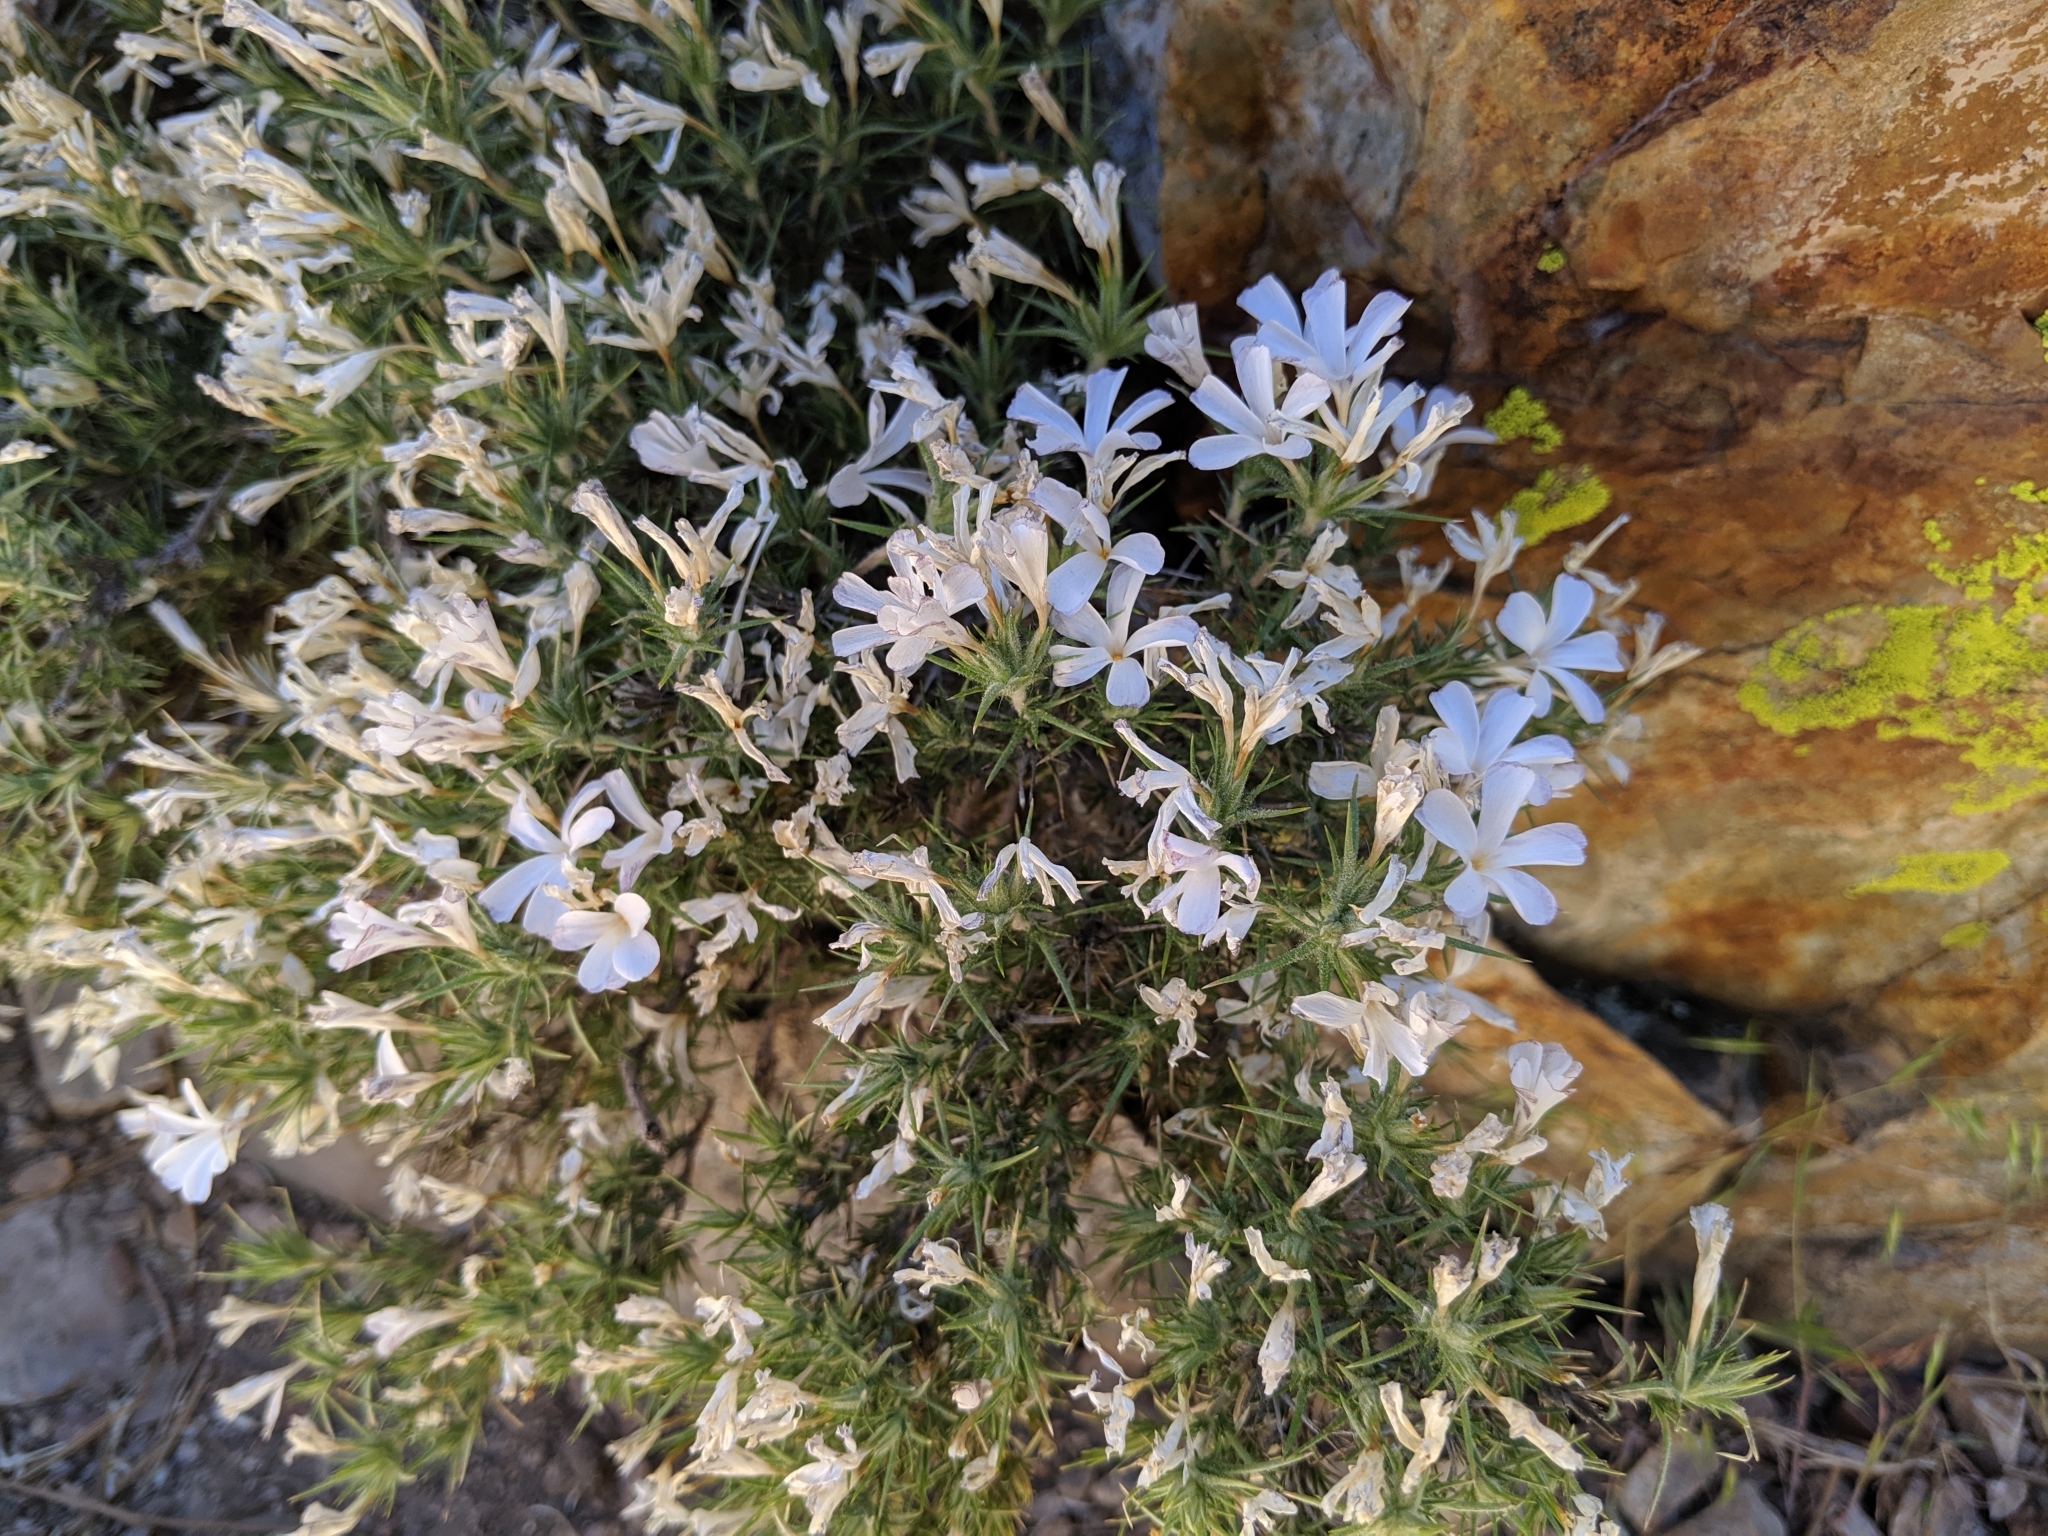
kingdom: Plantae
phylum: Tracheophyta
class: Magnoliopsida
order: Ericales
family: Polemoniaceae
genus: Linanthus
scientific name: Linanthus pungens
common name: Granite prickly phlox
